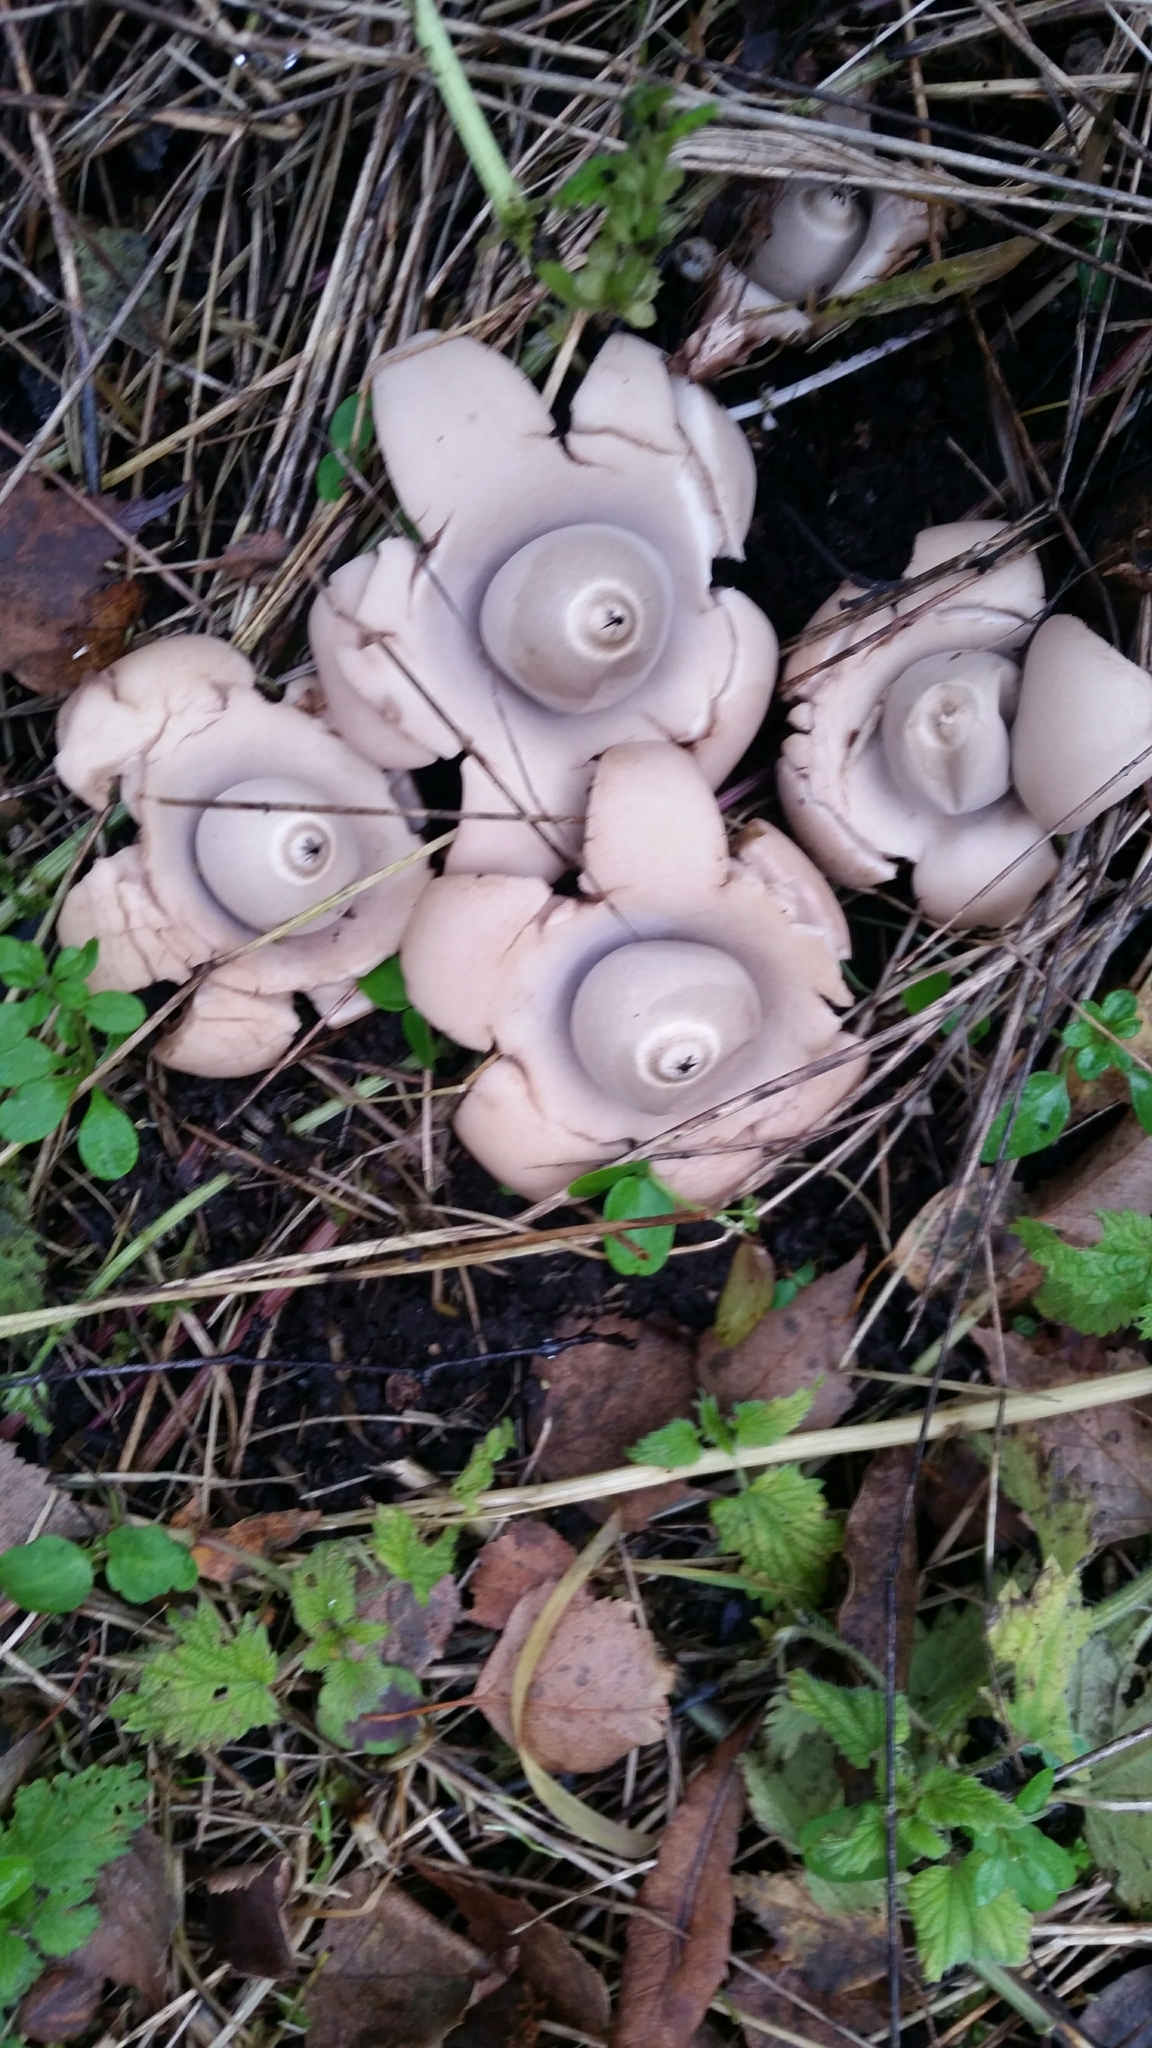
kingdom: Fungi
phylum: Basidiomycota
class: Agaricomycetes
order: Geastrales
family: Geastraceae
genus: Geastrum
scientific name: Geastrum triplex
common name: Collared earthstar
